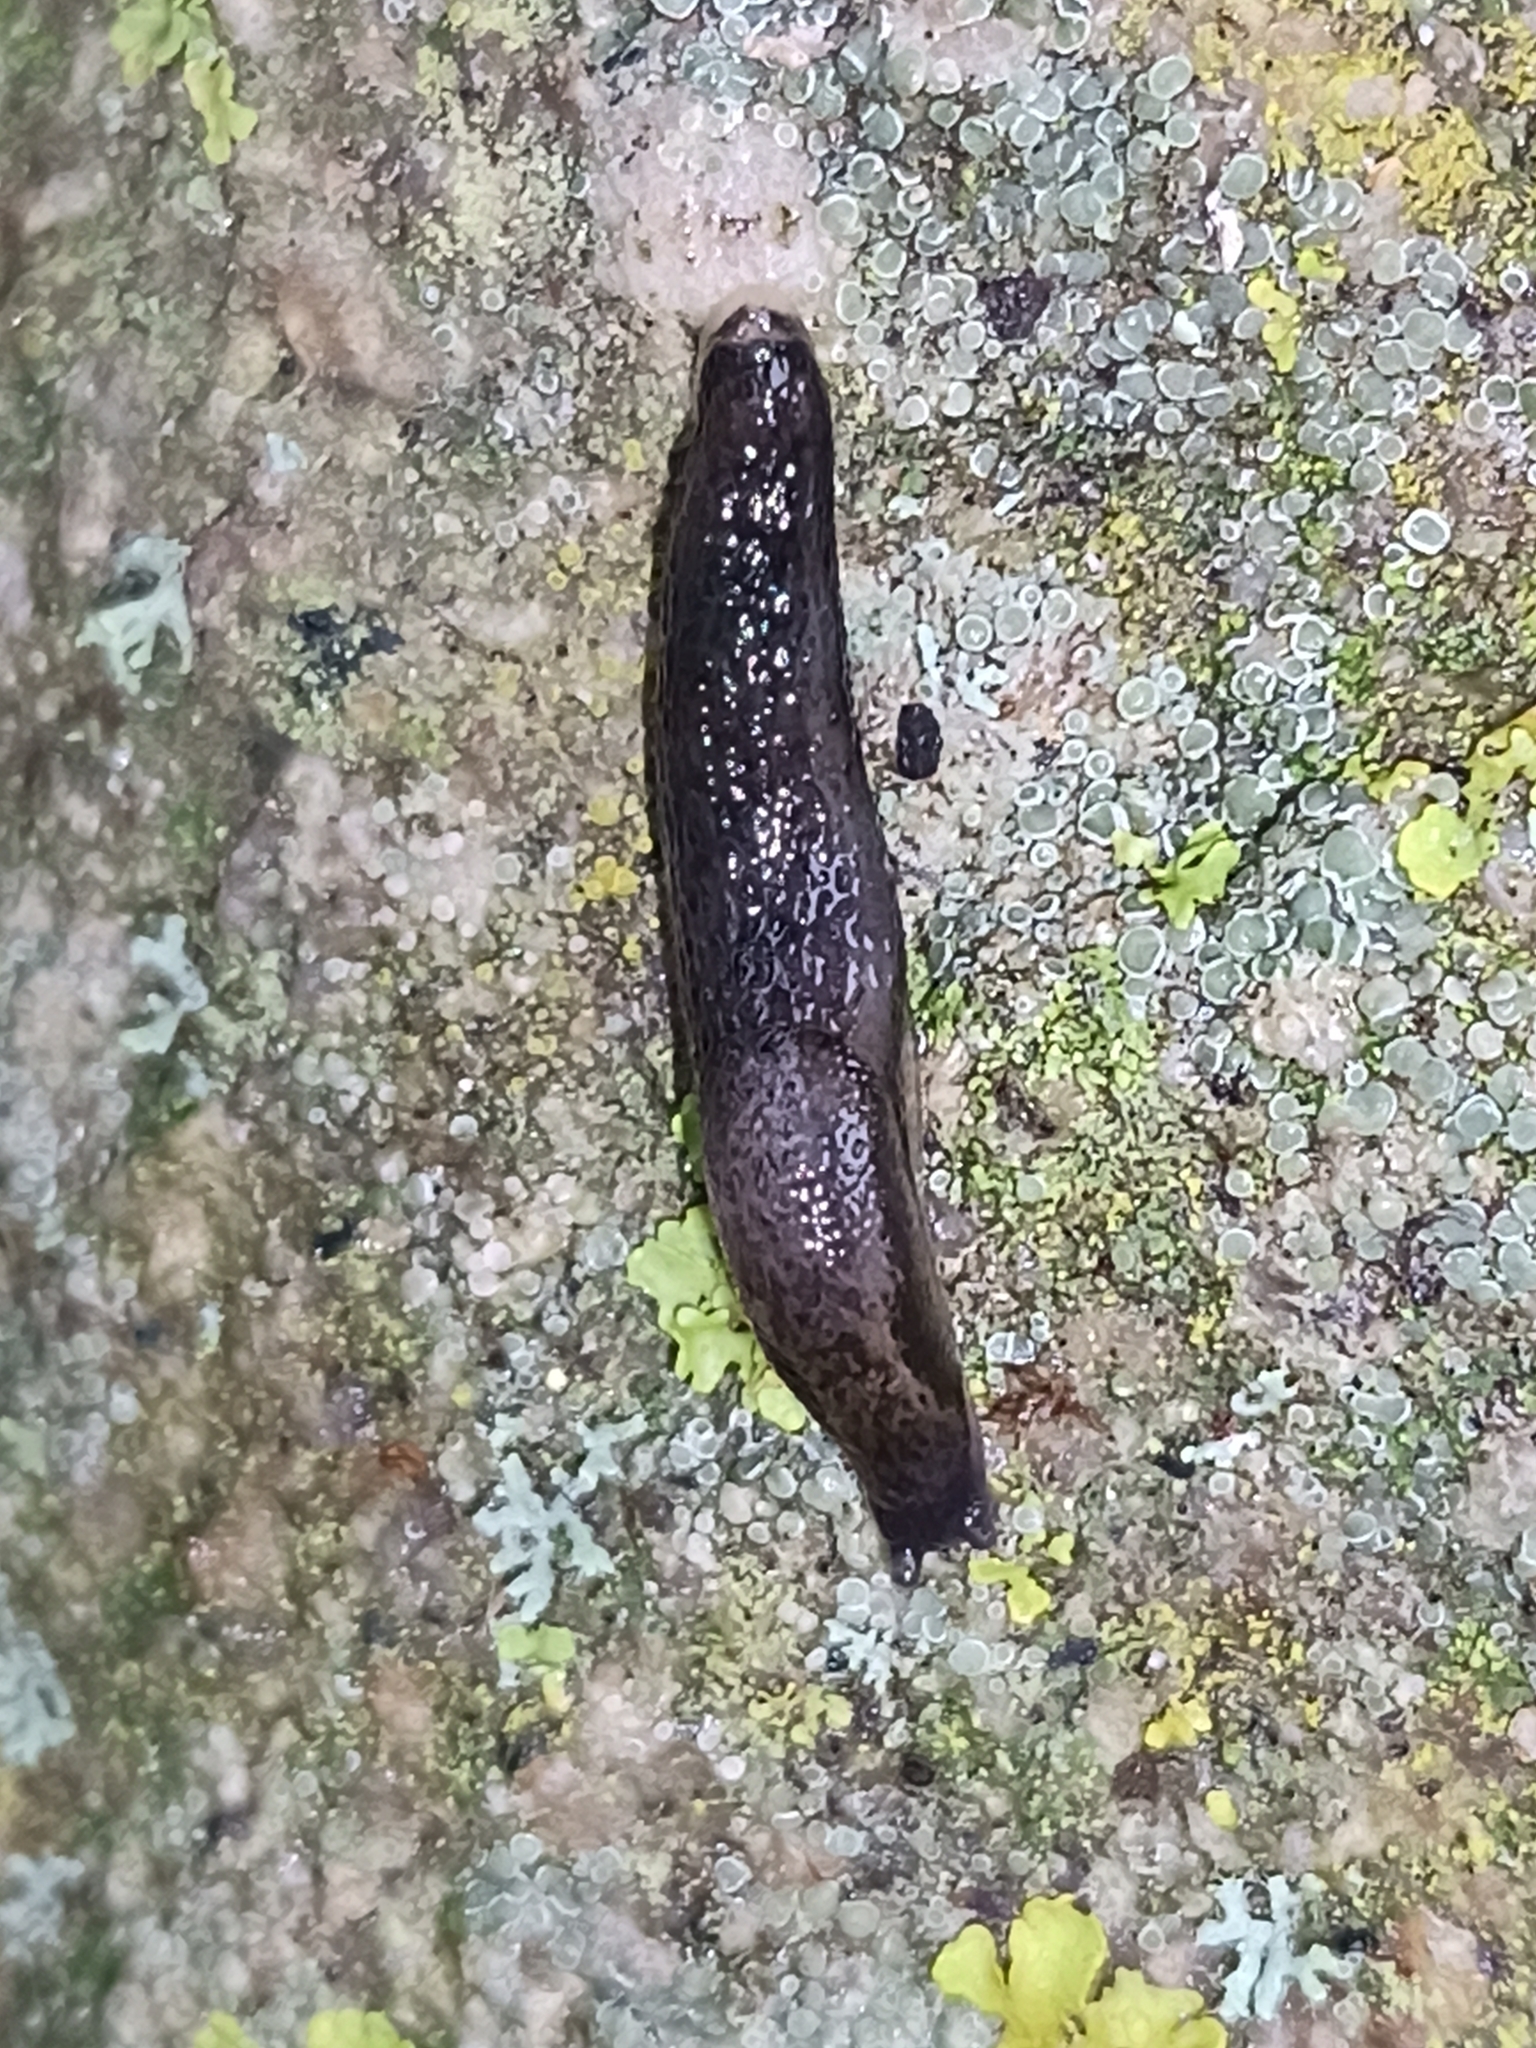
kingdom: Animalia
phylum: Mollusca
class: Gastropoda
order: Stylommatophora
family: Arionidae
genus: Arion
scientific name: Arion intermedius
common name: Hedgehog slug
